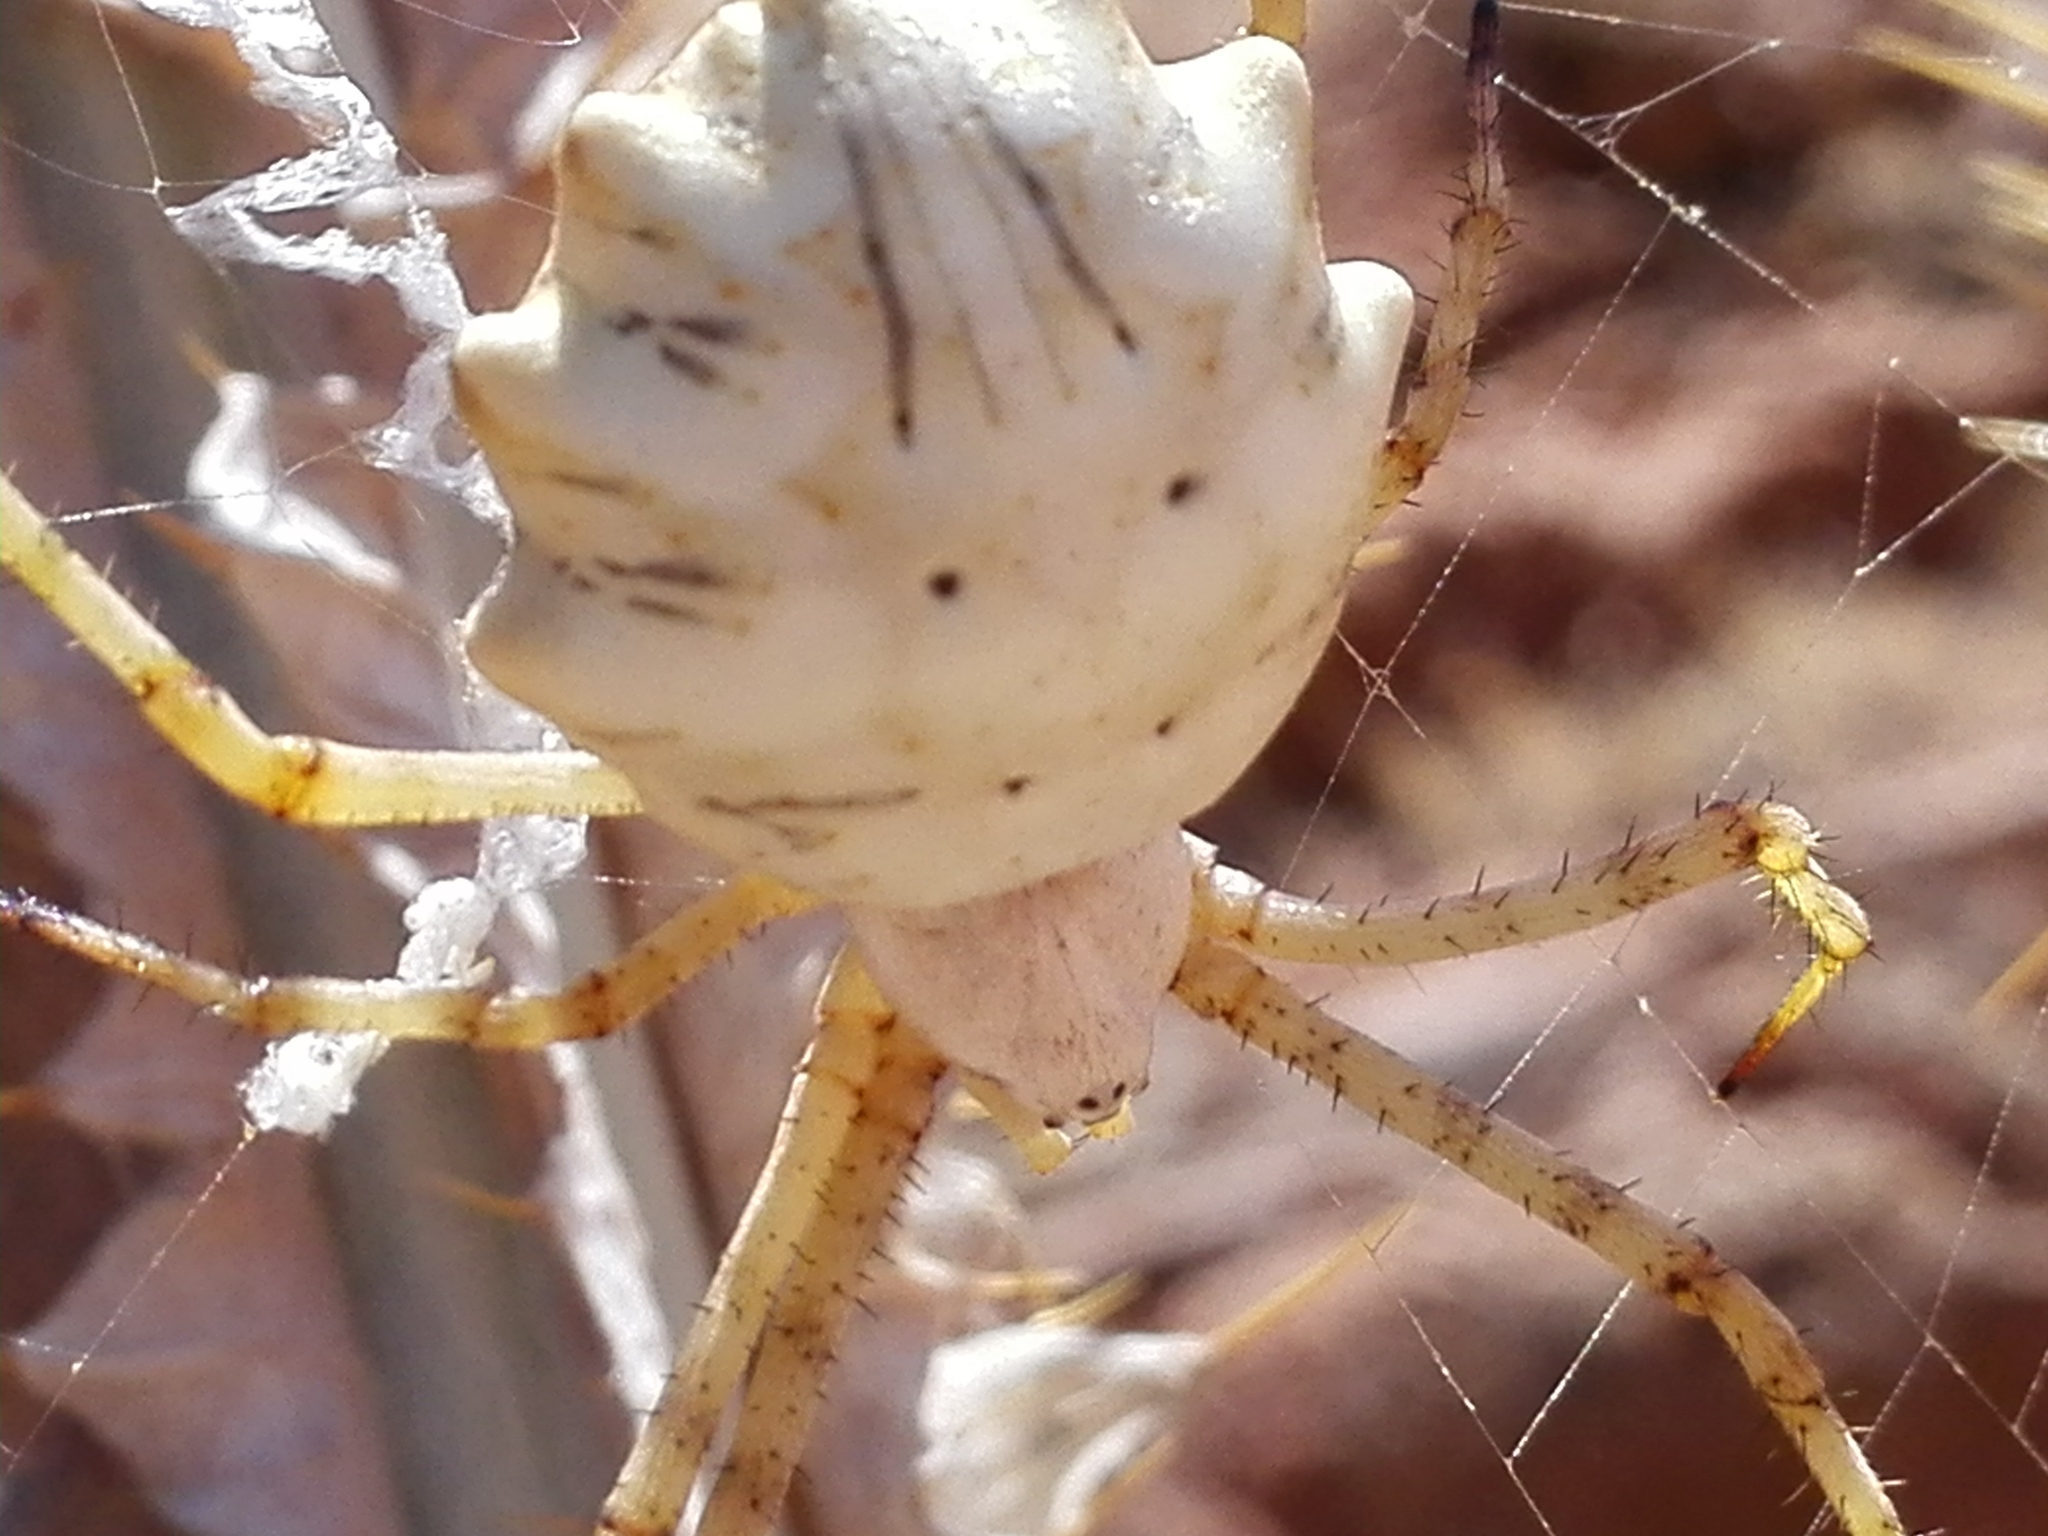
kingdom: Animalia
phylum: Arthropoda
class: Arachnida
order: Araneae
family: Araneidae
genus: Argiope
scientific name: Argiope lobata
